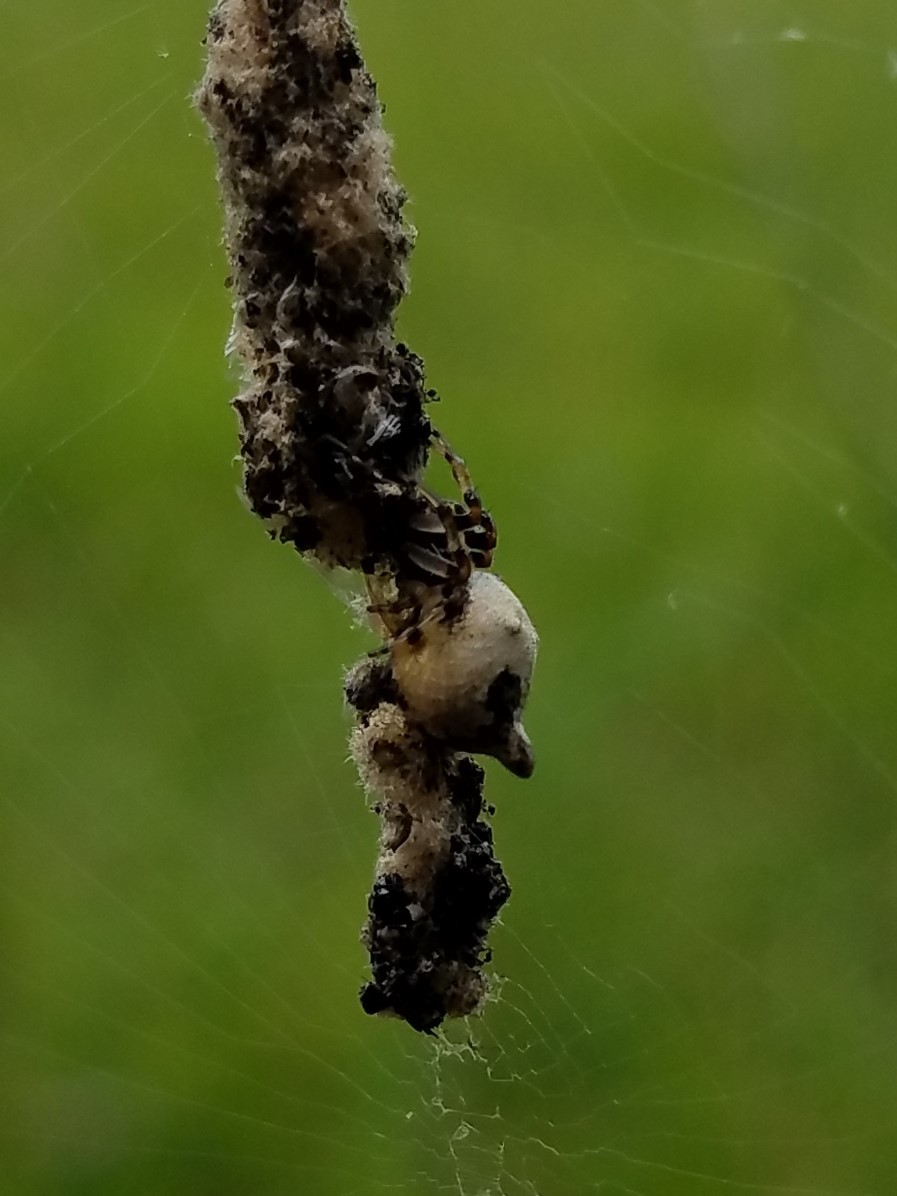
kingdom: Animalia
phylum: Arthropoda
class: Arachnida
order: Araneae
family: Araneidae
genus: Cyclosa
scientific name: Cyclosa turbinata
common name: Orb weavers
